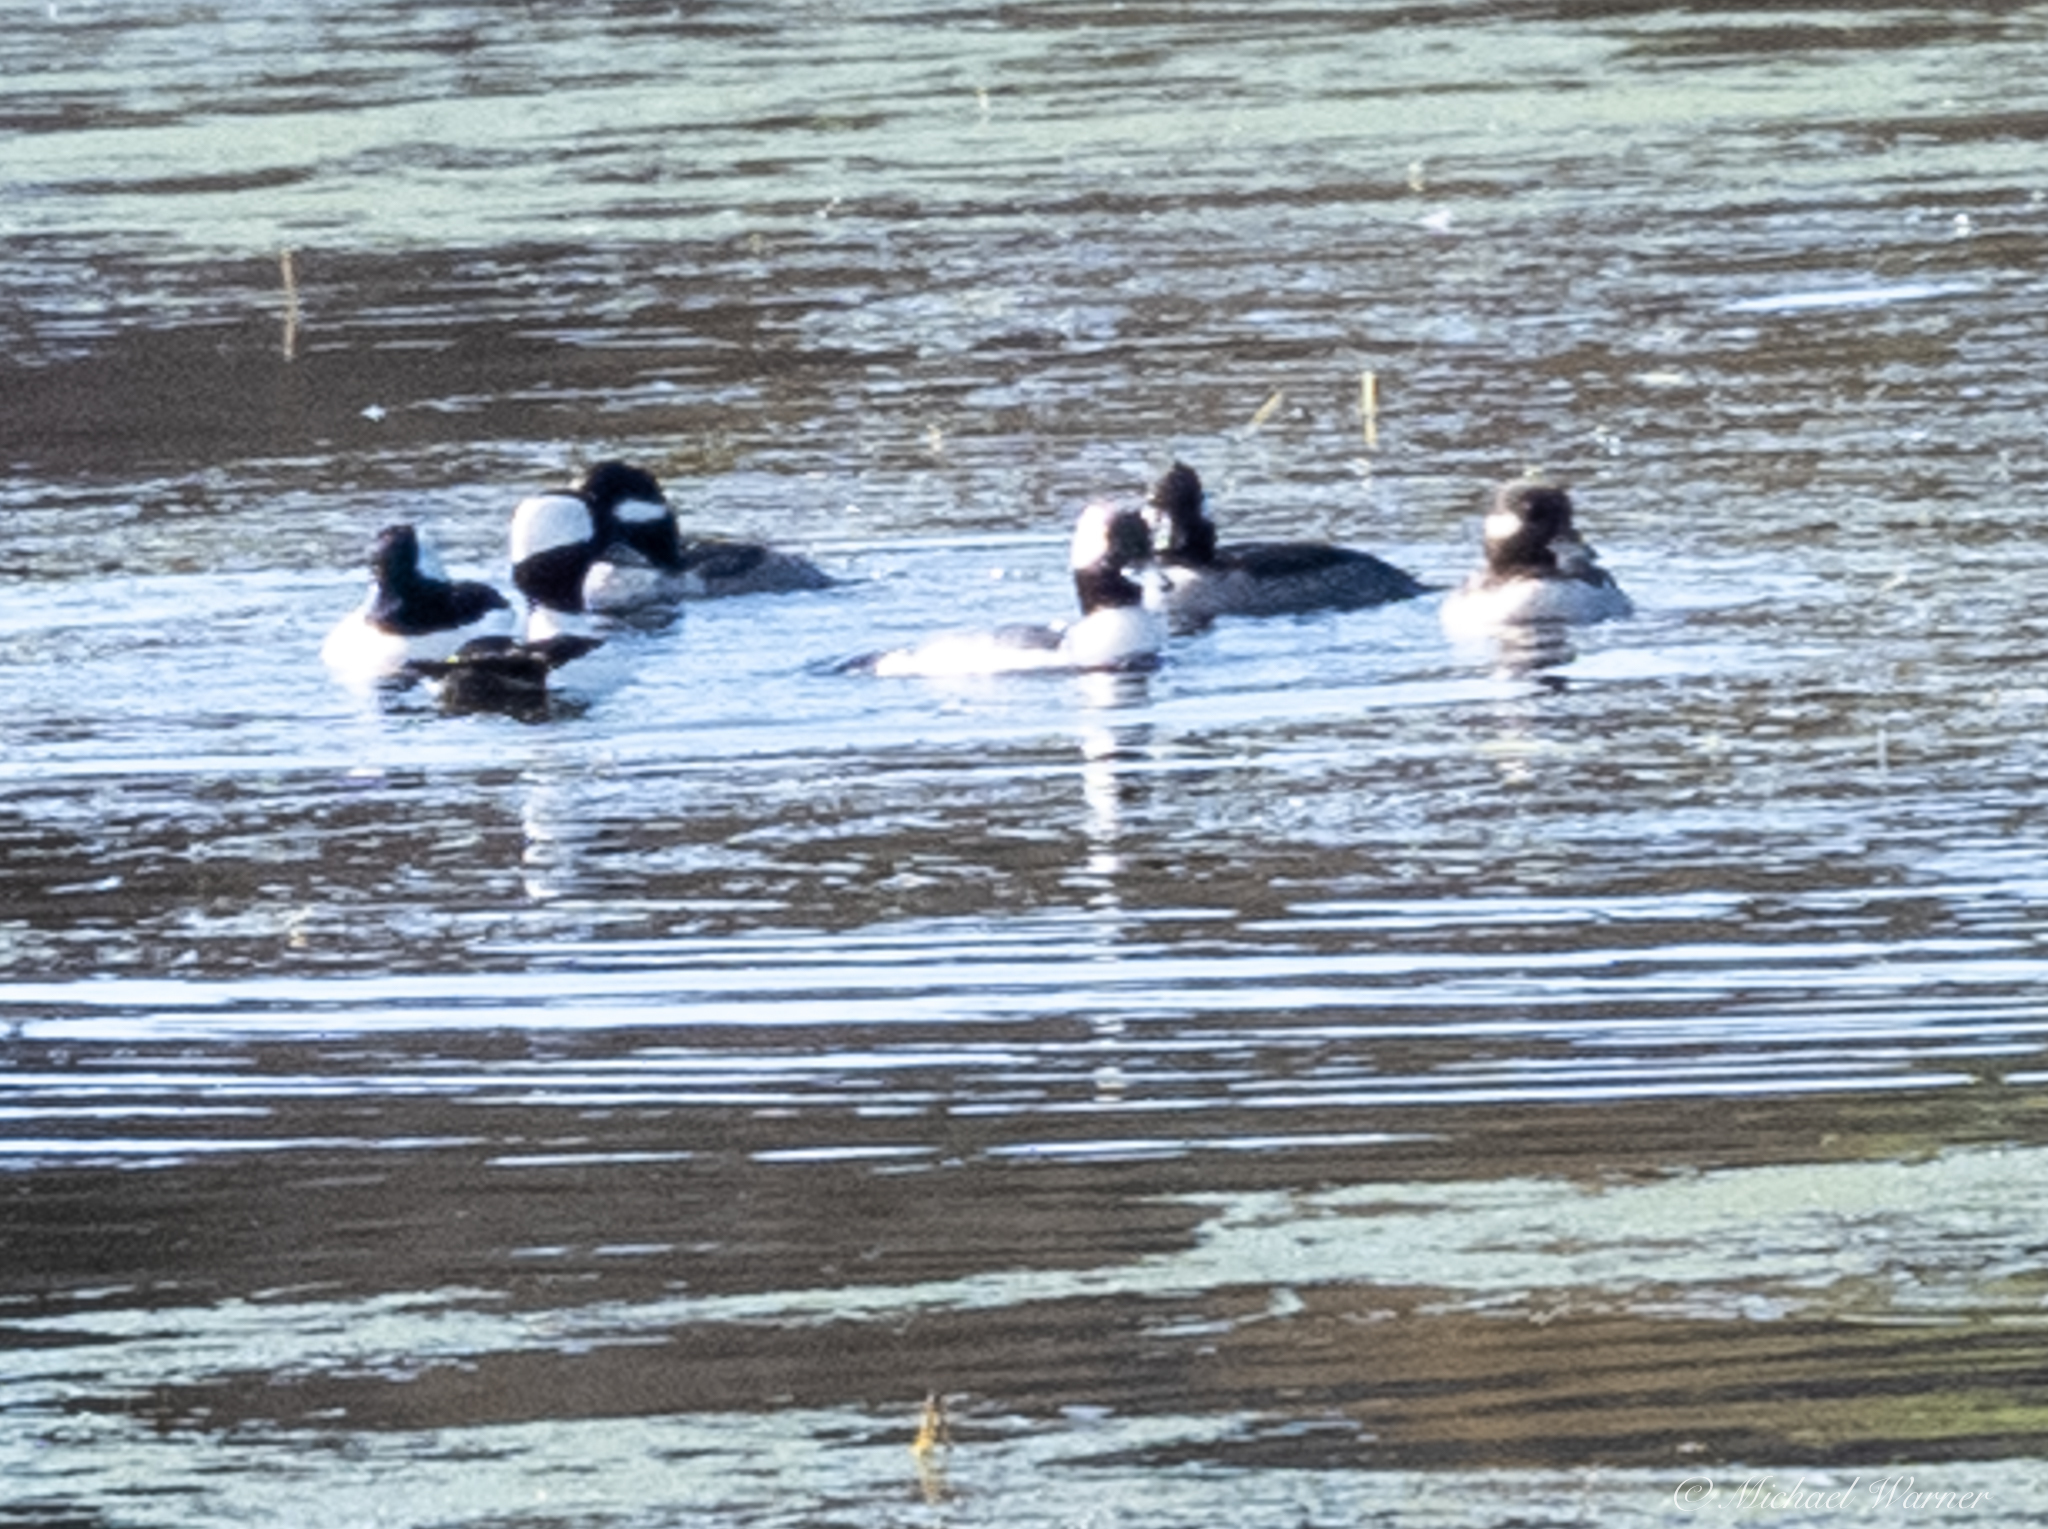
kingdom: Animalia
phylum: Chordata
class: Aves
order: Anseriformes
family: Anatidae
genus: Bucephala
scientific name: Bucephala albeola
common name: Bufflehead
